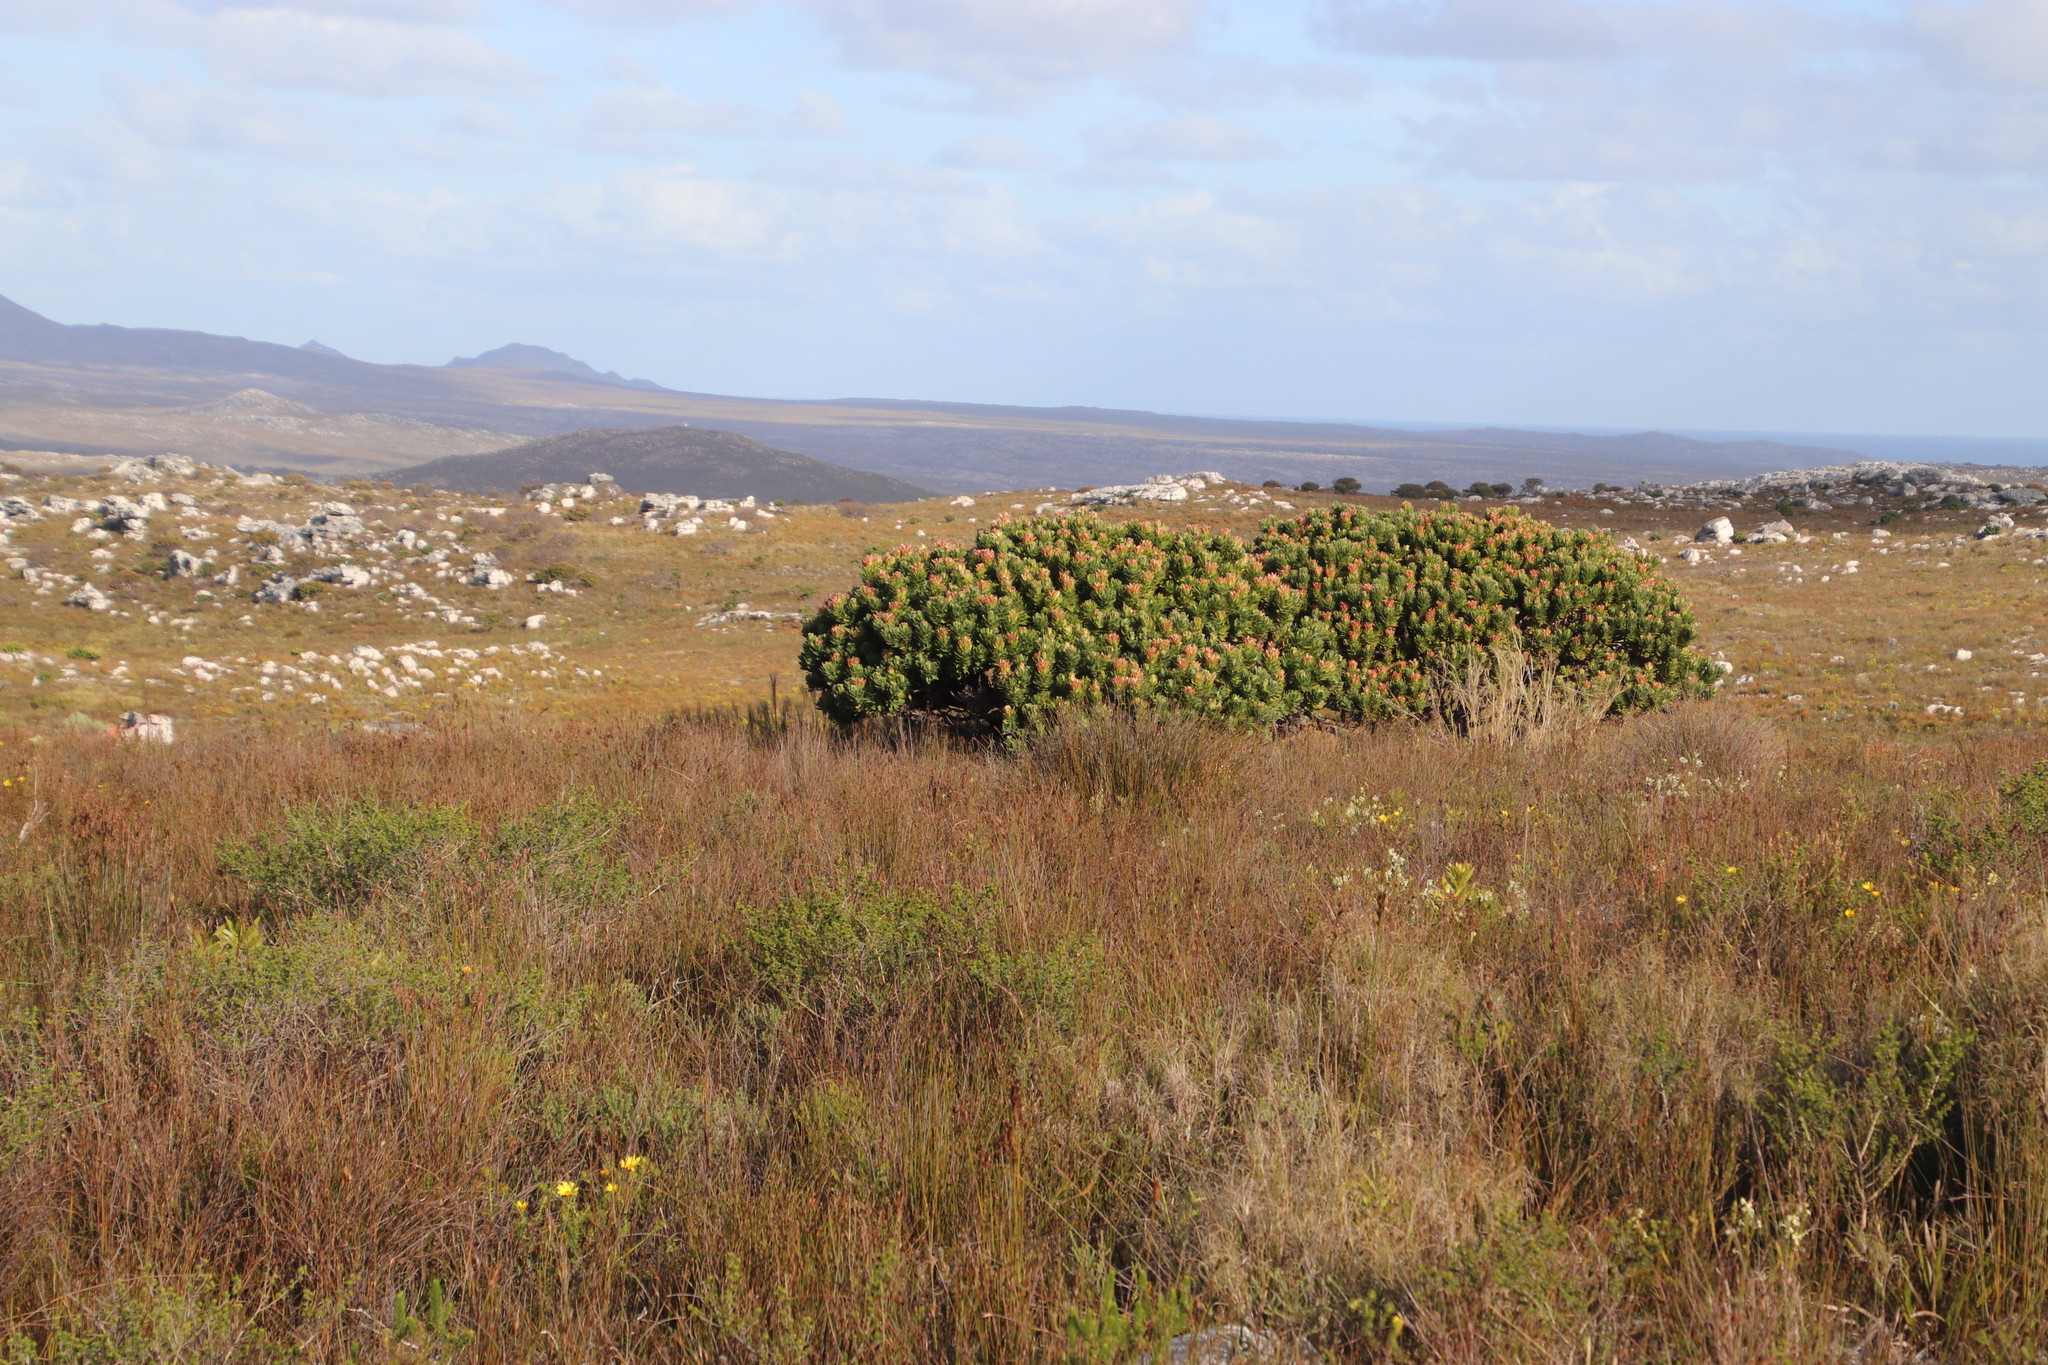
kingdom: Plantae
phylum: Tracheophyta
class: Magnoliopsida
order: Proteales
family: Proteaceae
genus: Mimetes
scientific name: Mimetes fimbriifolius
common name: Fringed bottlebrush
